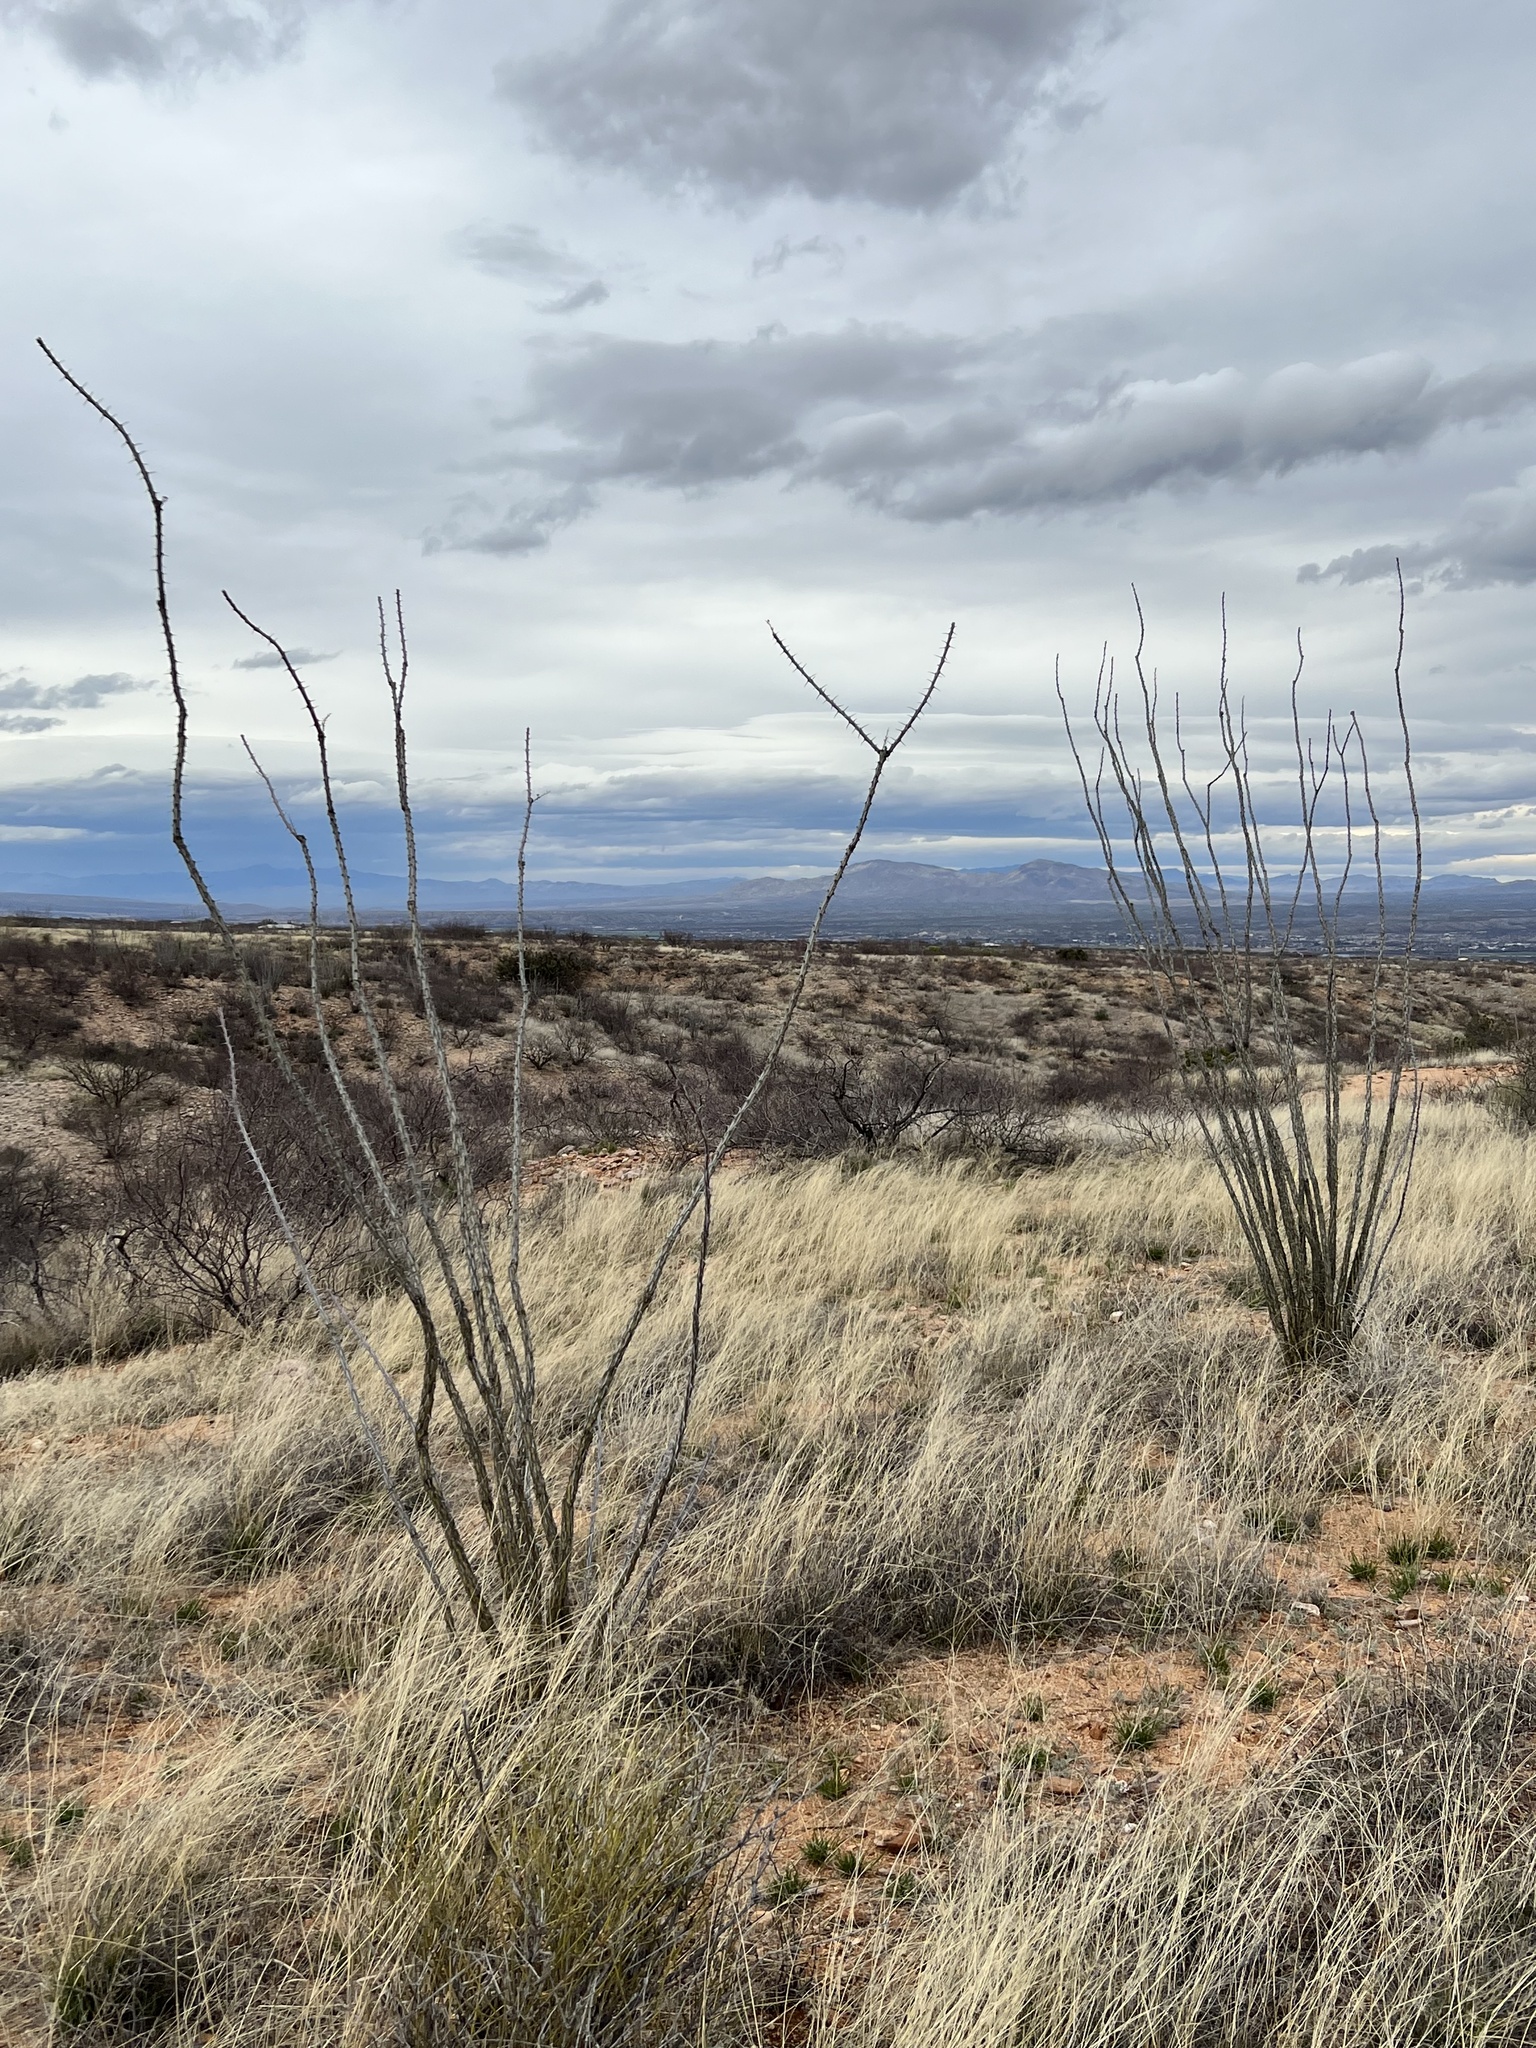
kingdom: Plantae
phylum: Tracheophyta
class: Magnoliopsida
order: Ericales
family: Fouquieriaceae
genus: Fouquieria
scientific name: Fouquieria splendens
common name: Vine-cactus
